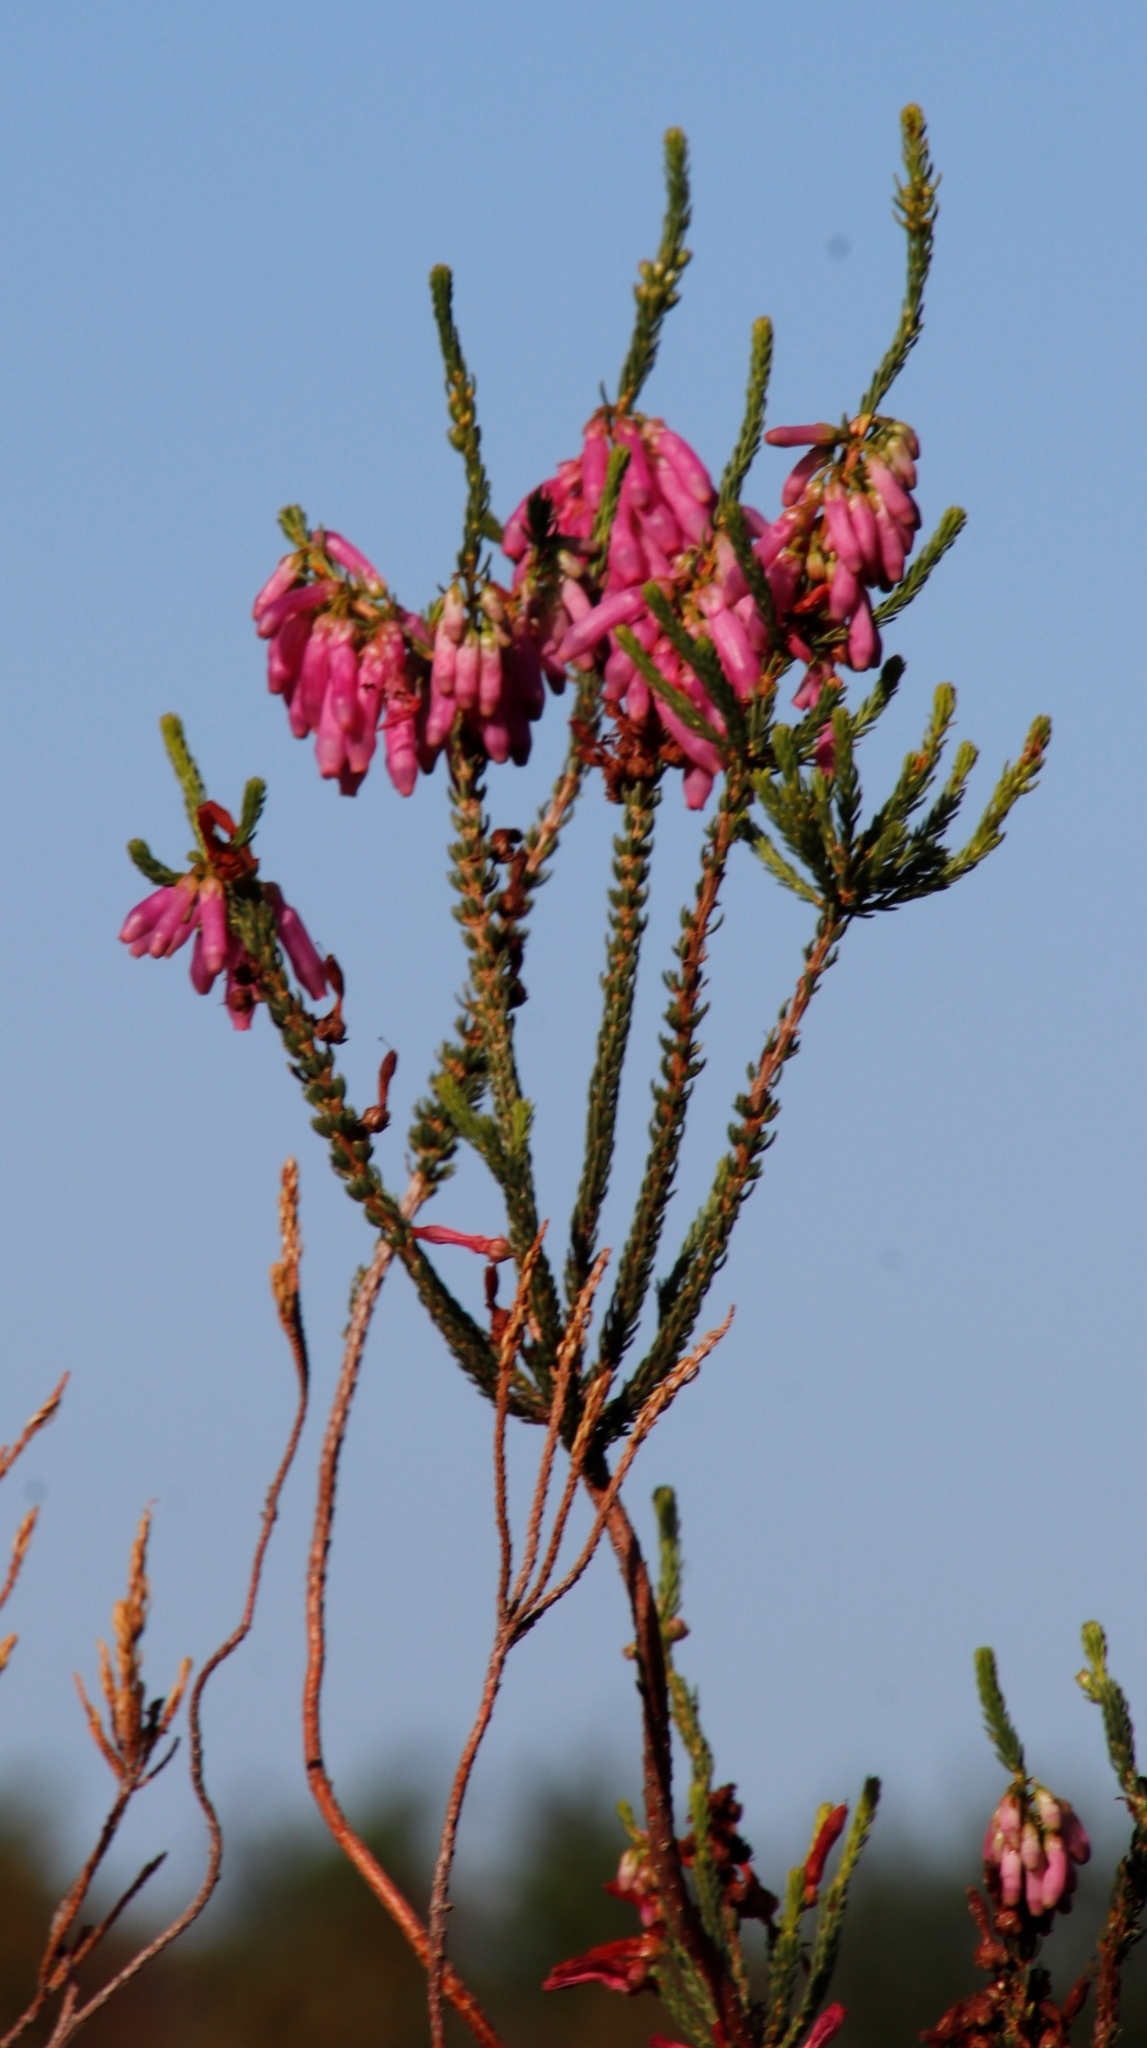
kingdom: Plantae
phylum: Tracheophyta
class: Magnoliopsida
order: Ericales
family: Ericaceae
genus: Erica
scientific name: Erica mammosa
